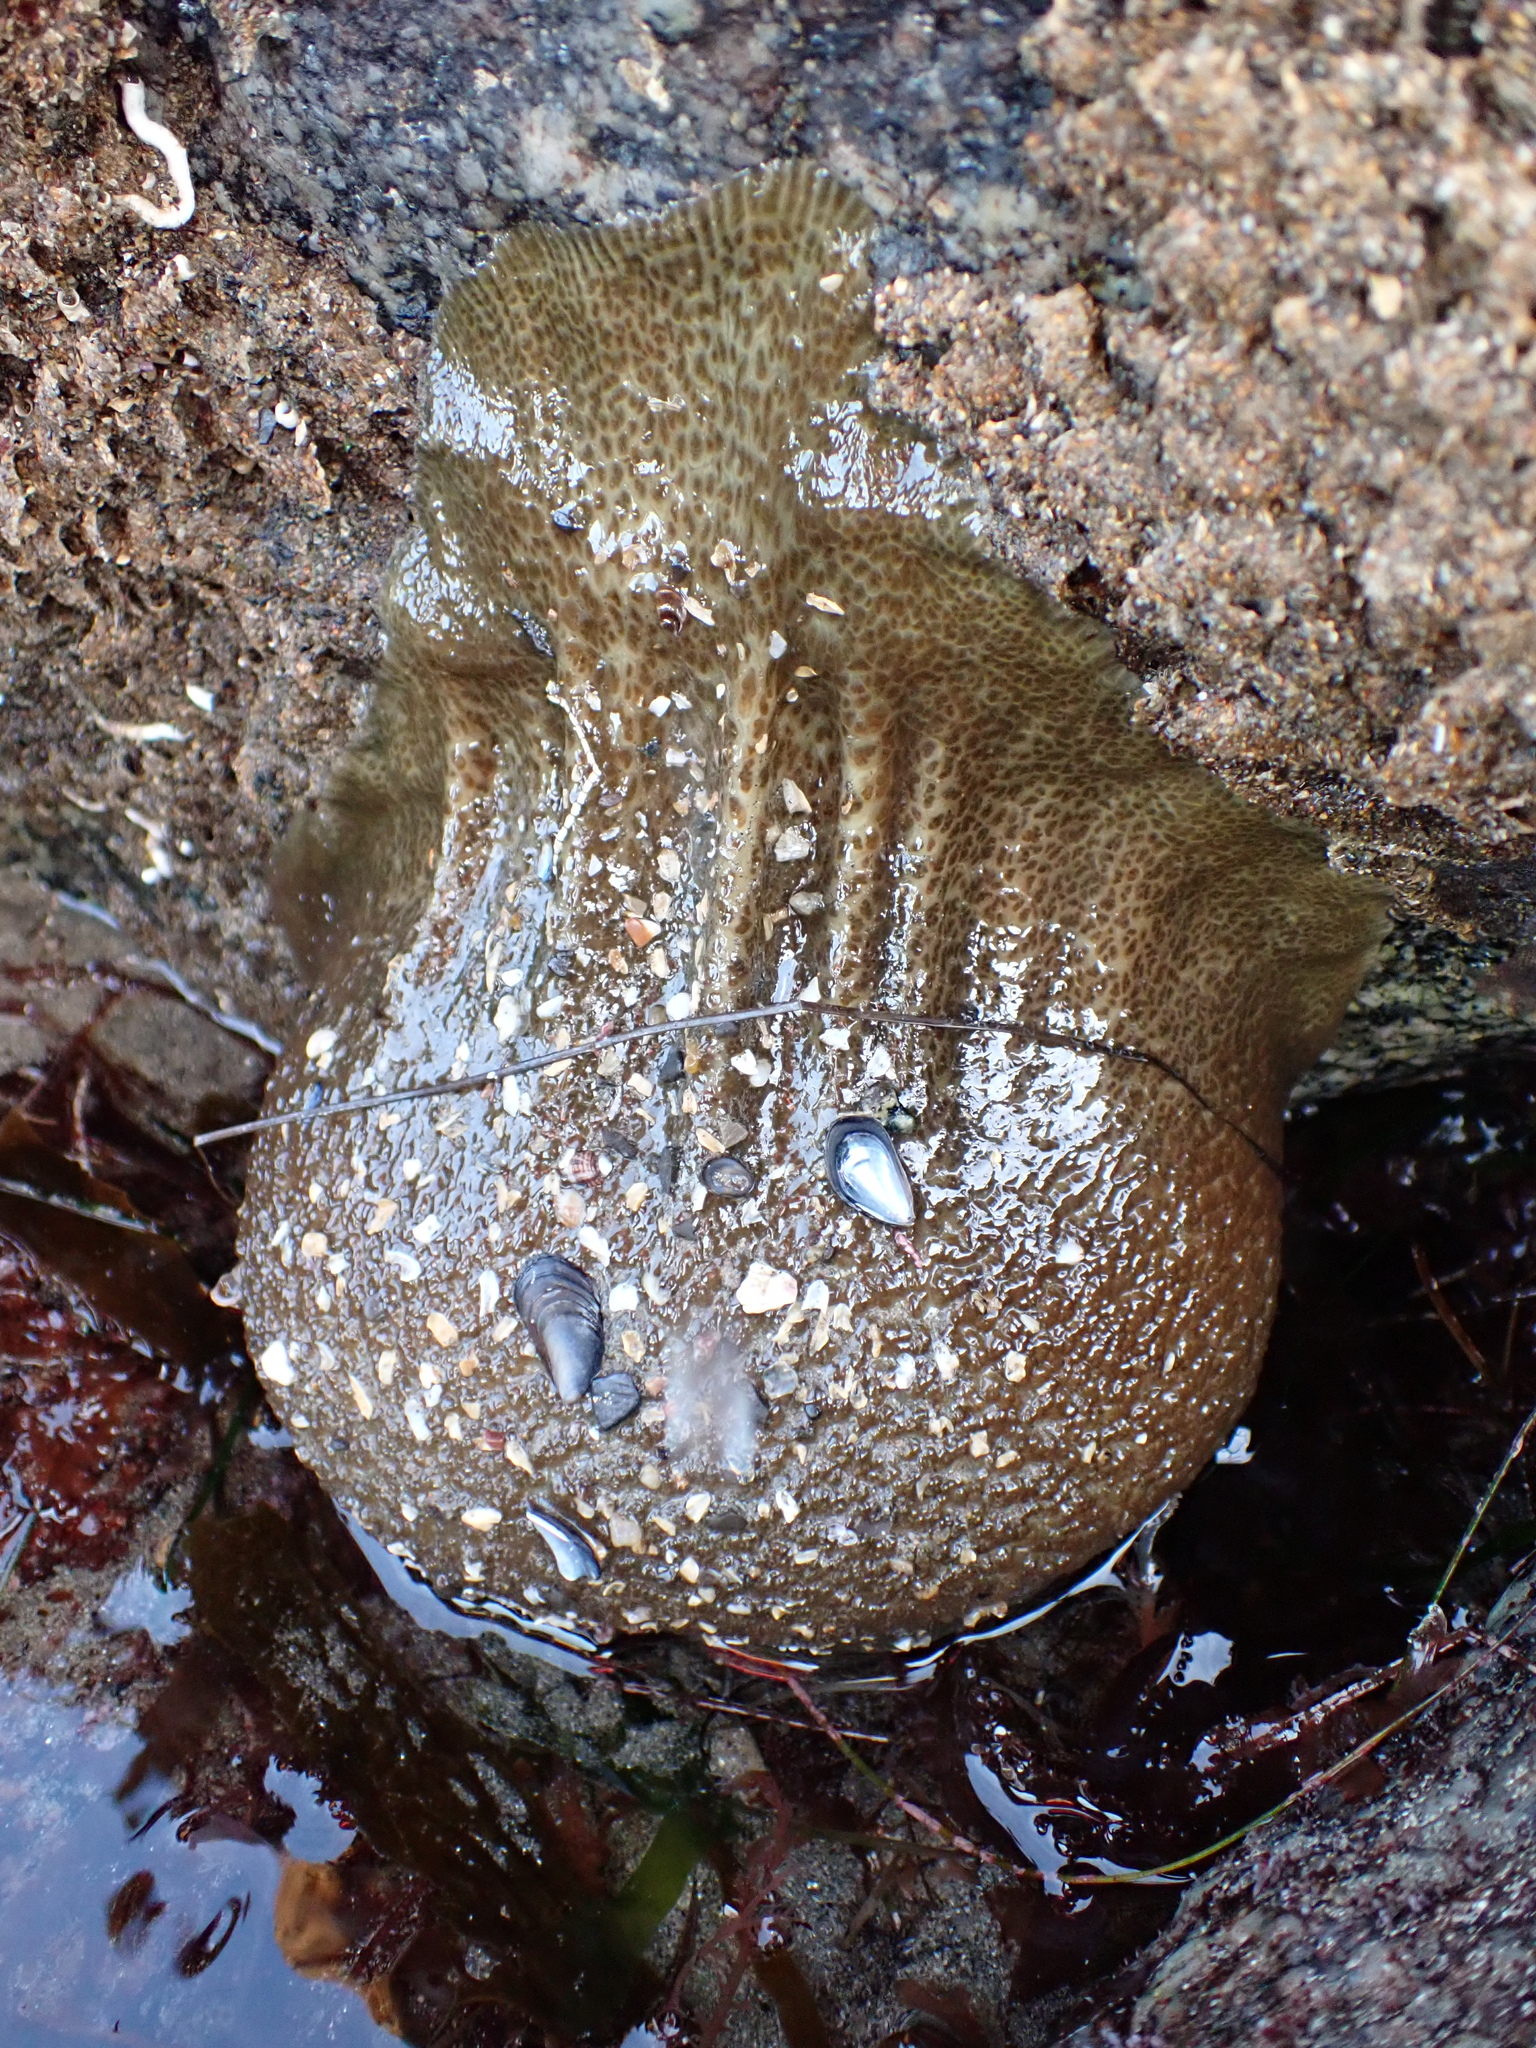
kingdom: Animalia
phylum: Cnidaria
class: Anthozoa
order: Actiniaria
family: Actiniidae
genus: Anthopleura
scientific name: Anthopleura xanthogrammica
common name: Giant green anemone
